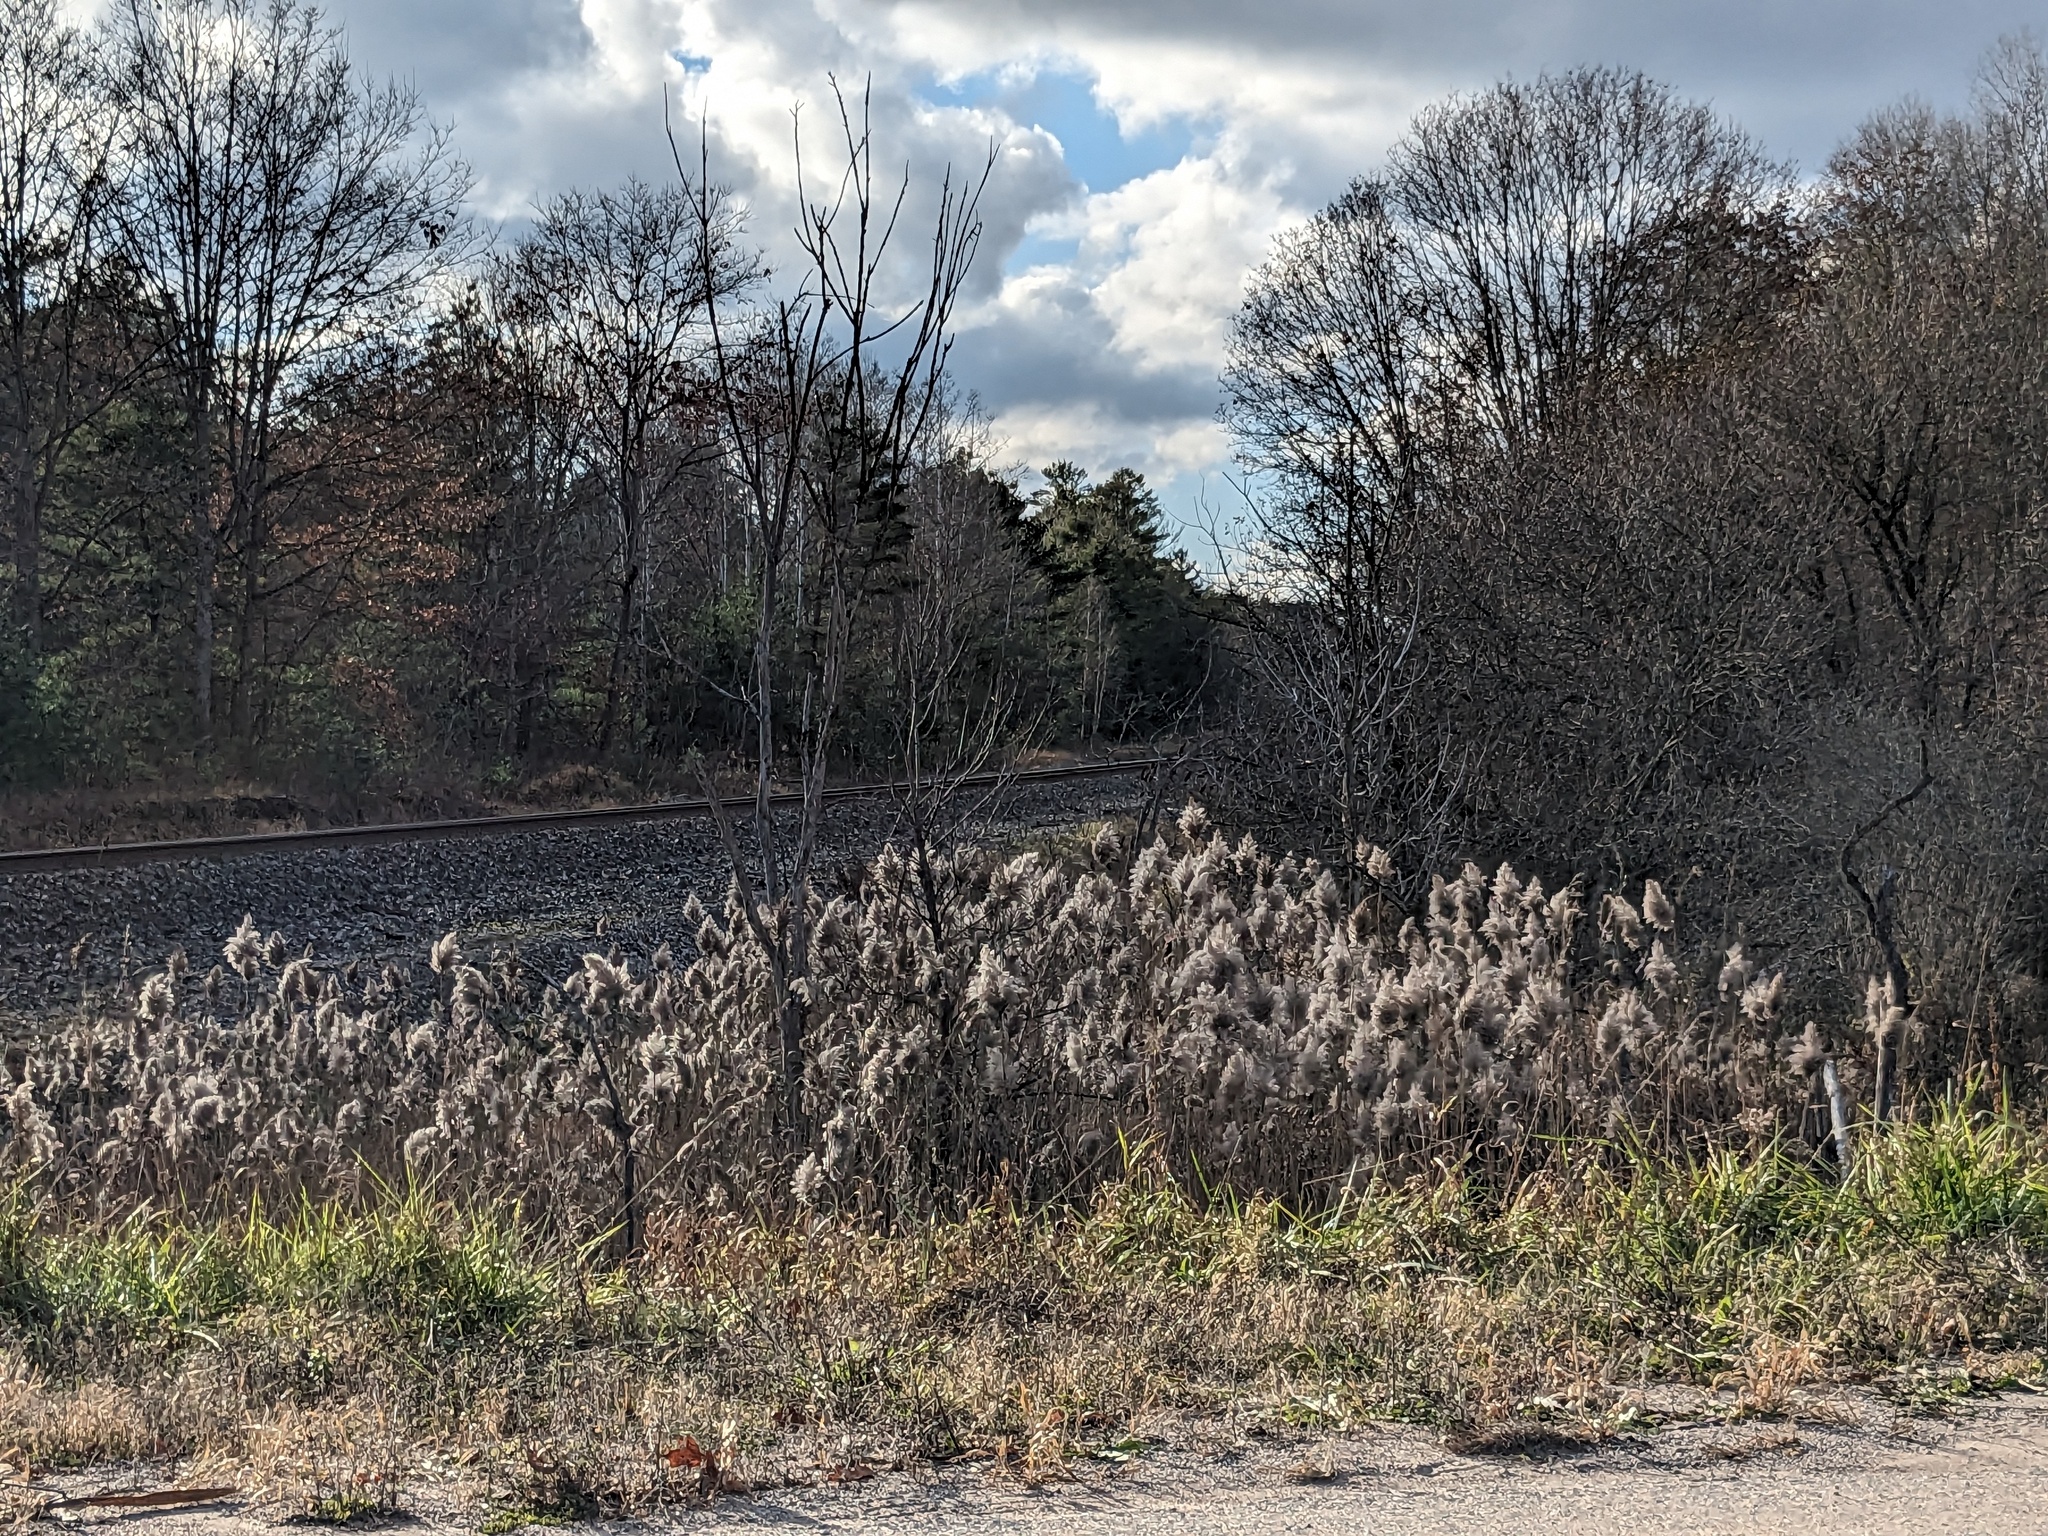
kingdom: Plantae
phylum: Tracheophyta
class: Liliopsida
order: Poales
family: Poaceae
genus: Phragmites
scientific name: Phragmites australis
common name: Common reed
